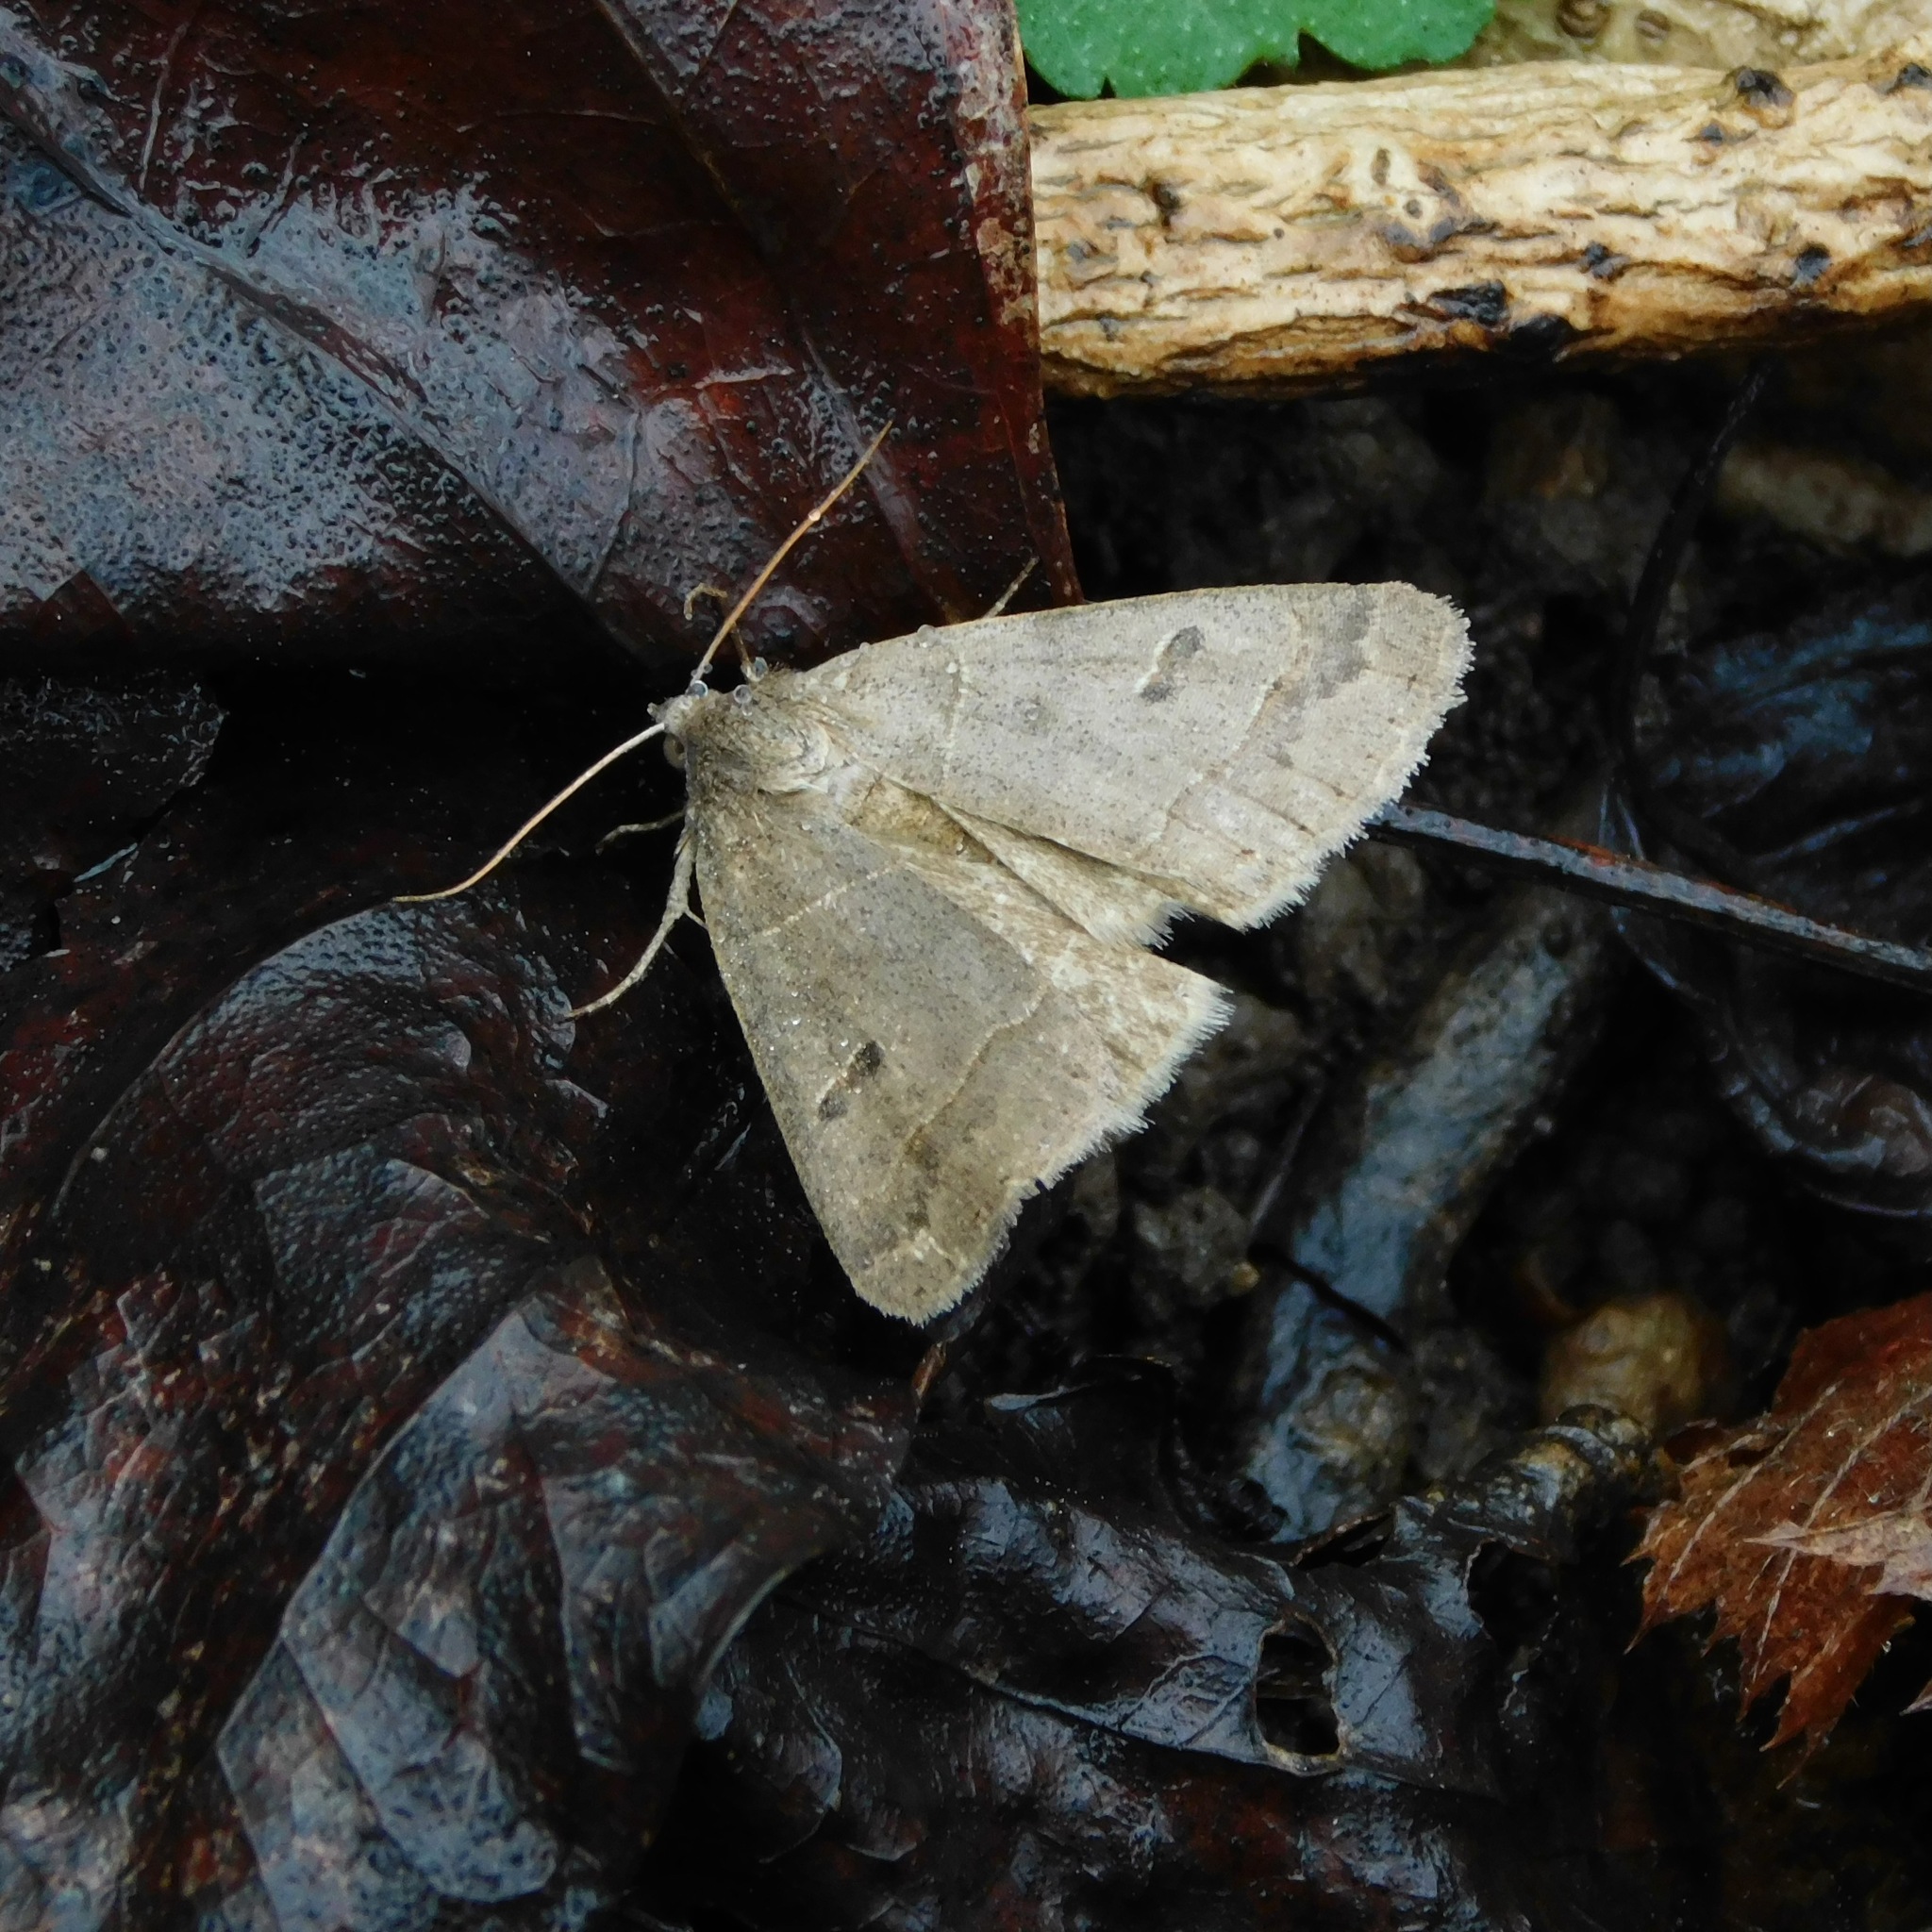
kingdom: Animalia
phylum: Arthropoda
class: Insecta
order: Lepidoptera
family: Erebidae
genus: Phoberia
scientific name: Phoberia atomaris
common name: Common oak moth
